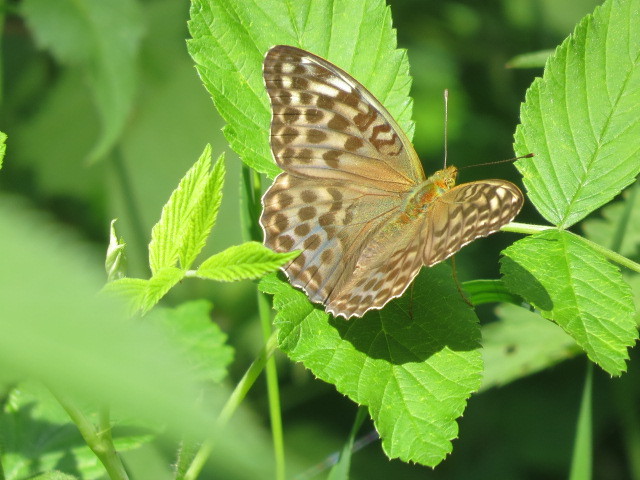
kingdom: Animalia
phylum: Arthropoda
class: Insecta
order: Lepidoptera
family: Nymphalidae
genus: Argynnis
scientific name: Argynnis paphia
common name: Silver-washed fritillary
